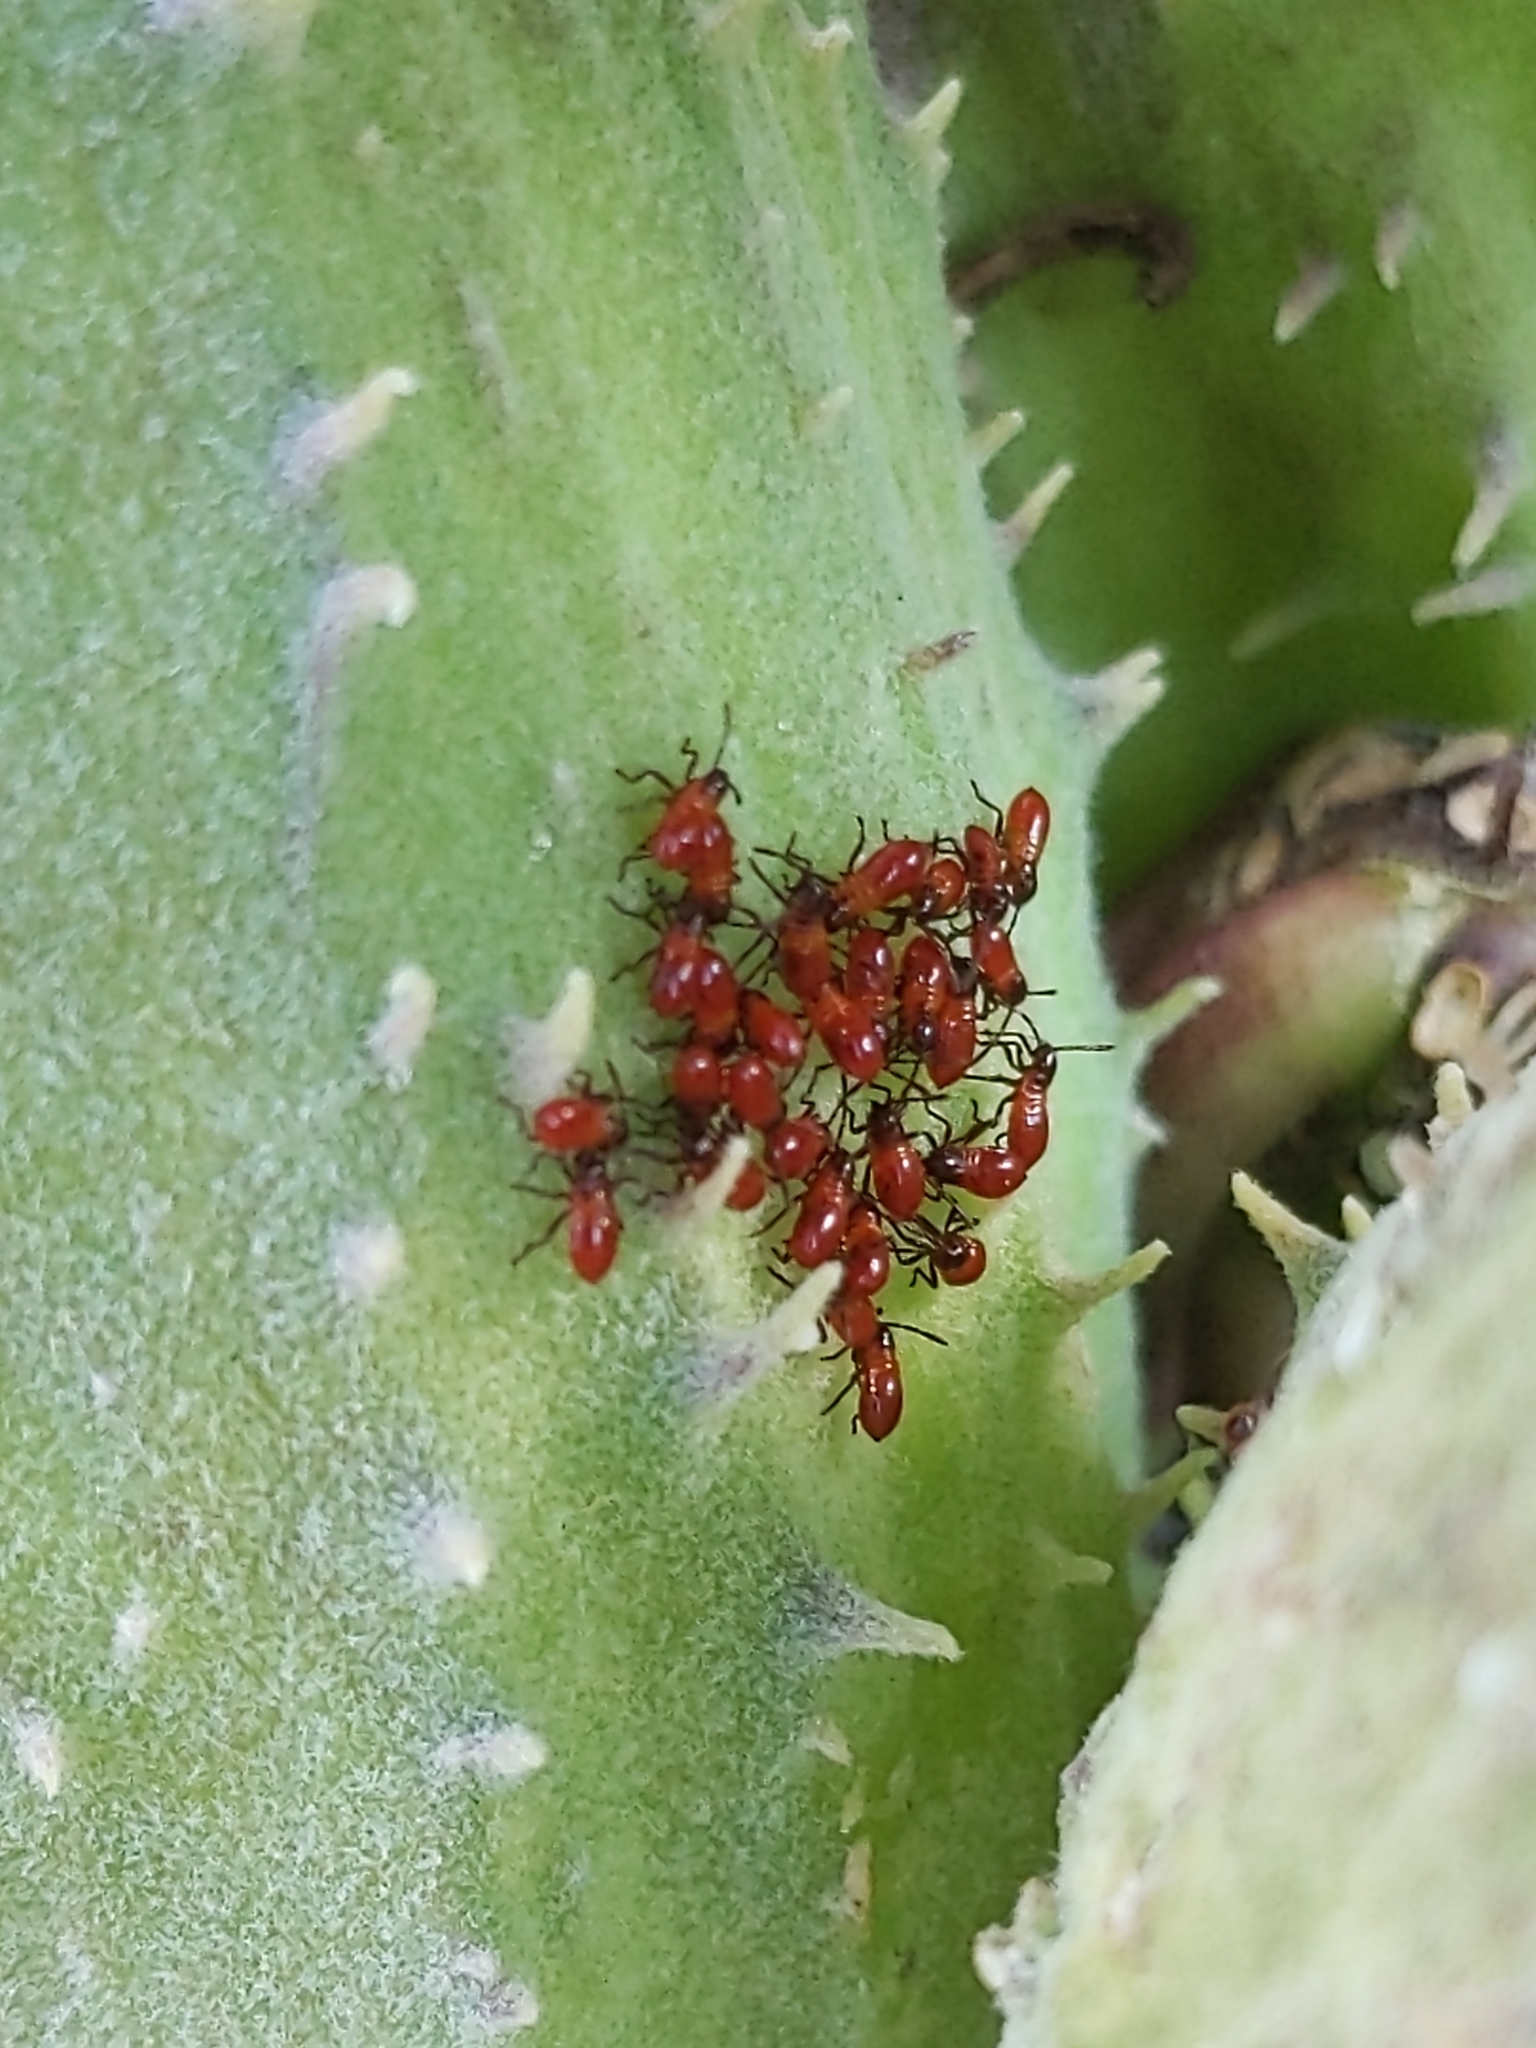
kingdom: Animalia
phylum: Arthropoda
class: Insecta
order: Hemiptera
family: Lygaeidae
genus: Oncopeltus
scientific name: Oncopeltus fasciatus
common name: Large milkweed bug
